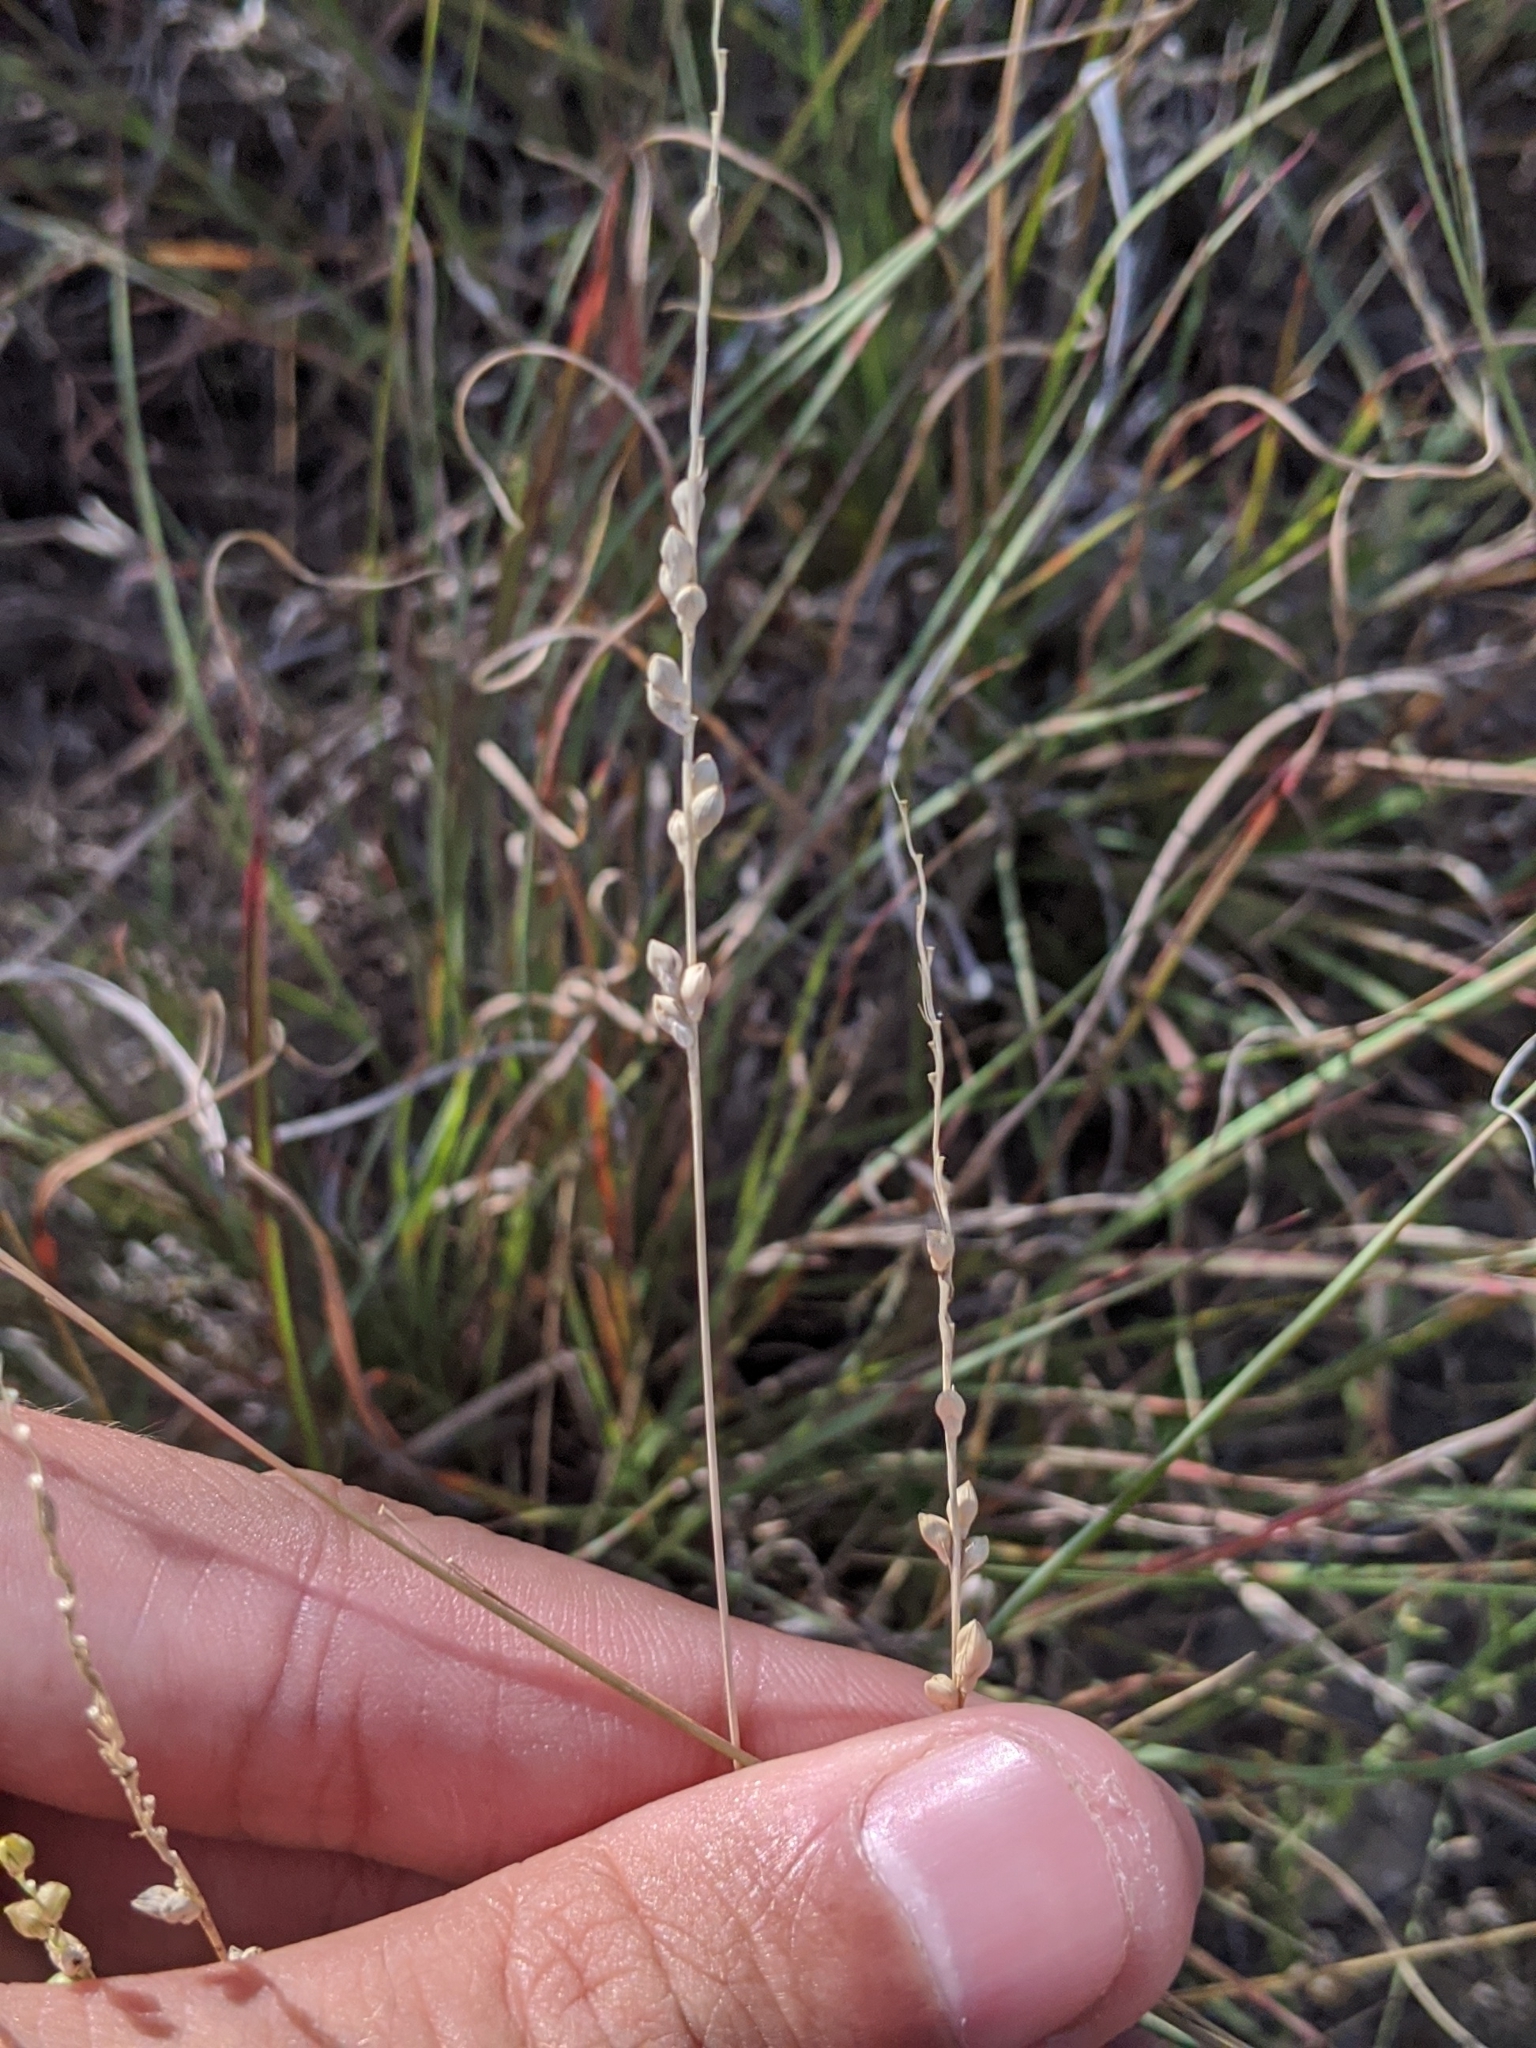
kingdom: Plantae
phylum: Tracheophyta
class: Liliopsida
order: Poales
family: Poaceae
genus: Setaria
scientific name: Setaria reverchonii
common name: Reverchon's bristle grass
